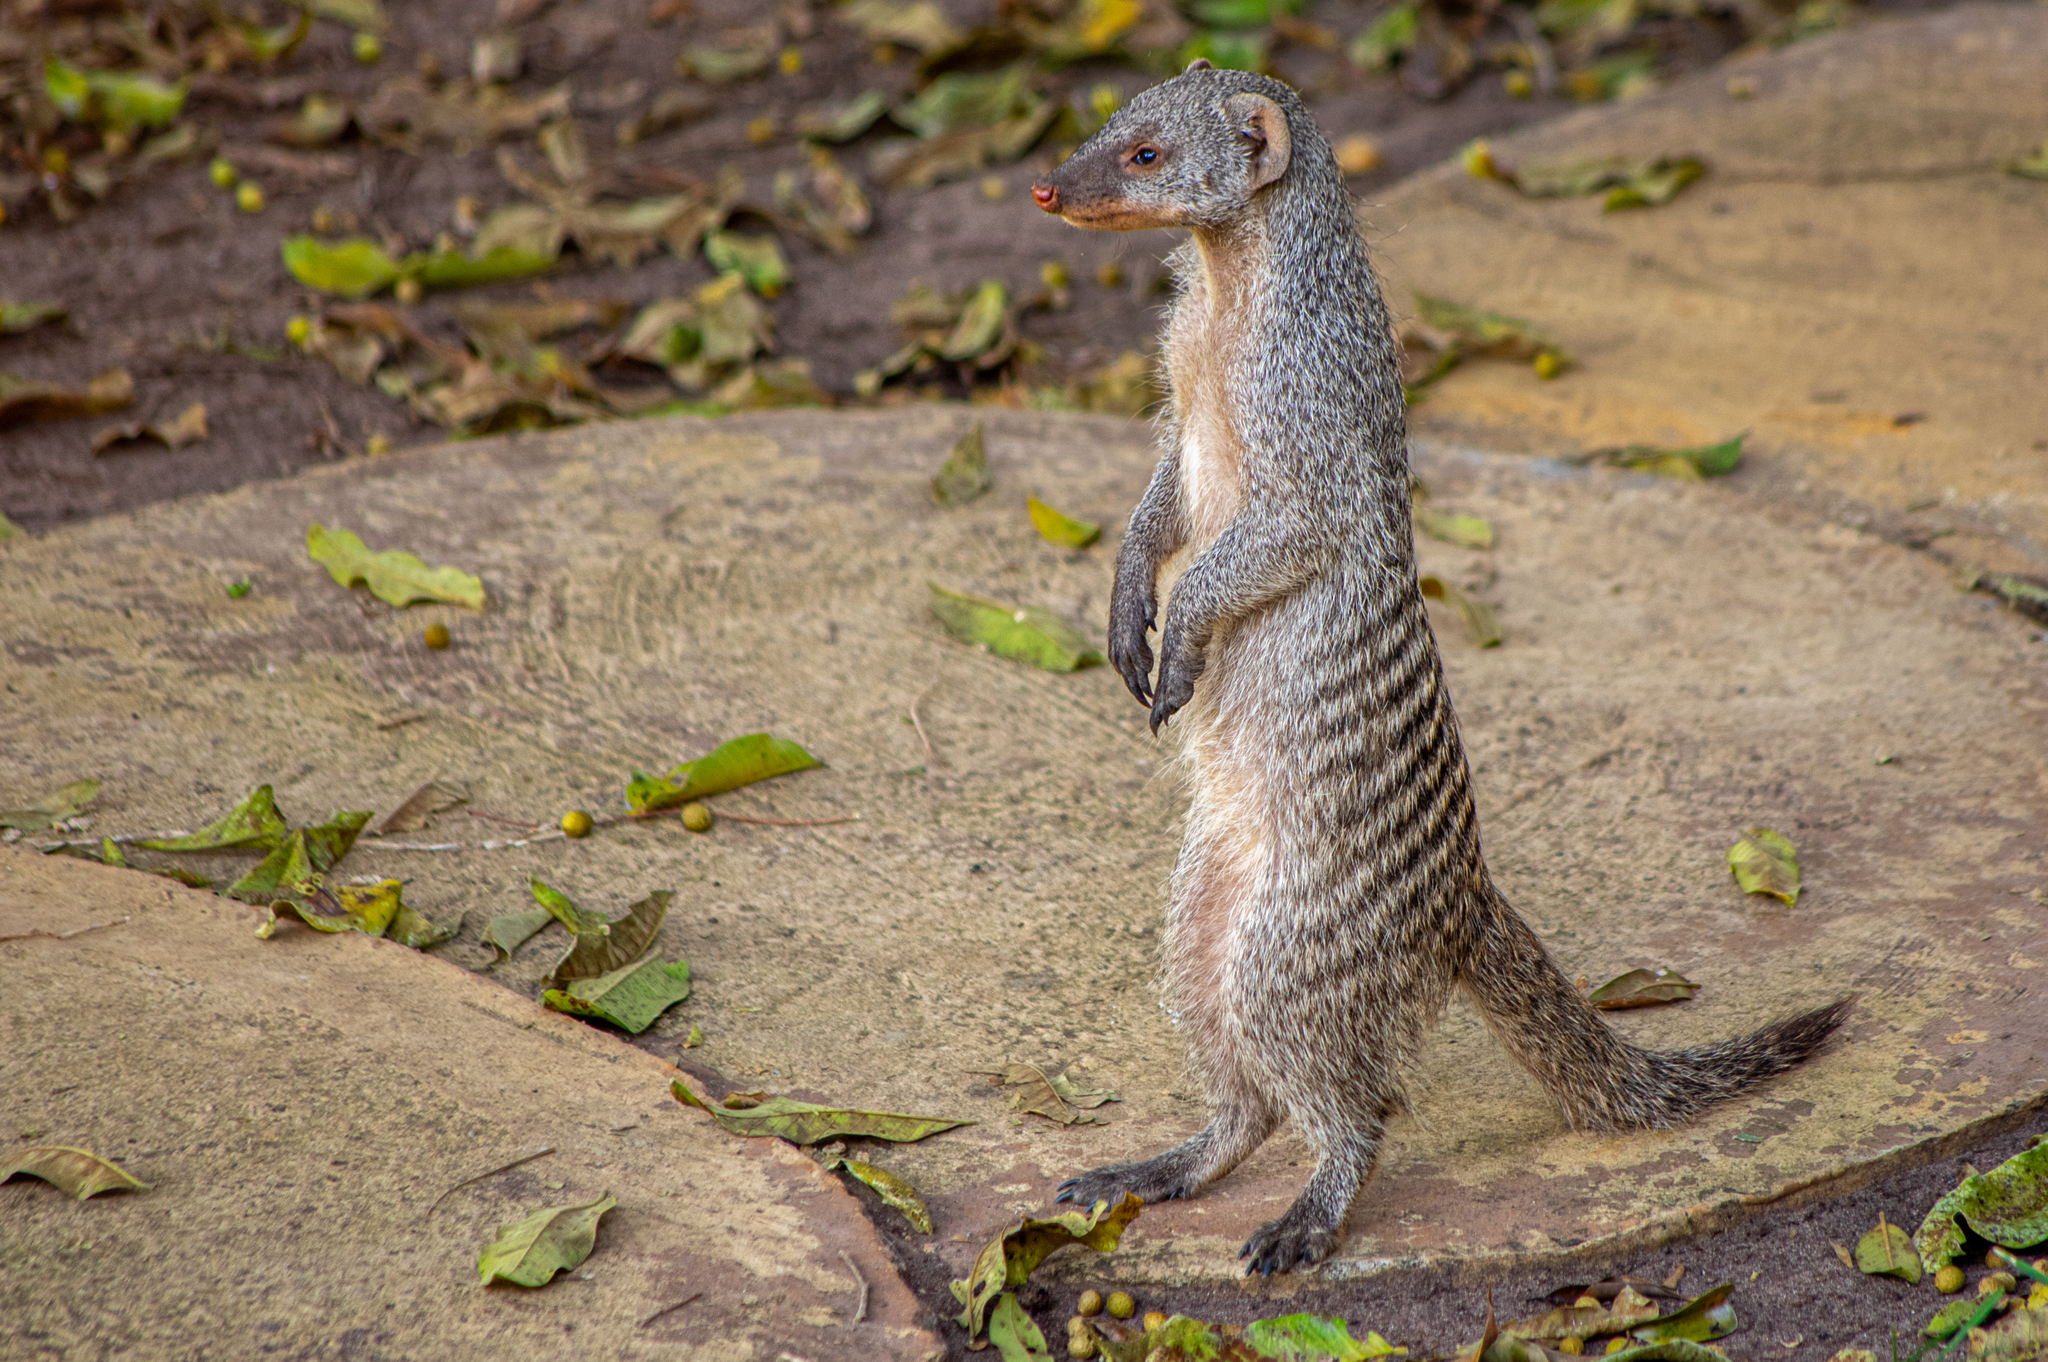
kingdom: Animalia
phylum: Chordata
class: Mammalia
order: Carnivora
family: Herpestidae
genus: Mungos
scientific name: Mungos mungo
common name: Banded mongoose
